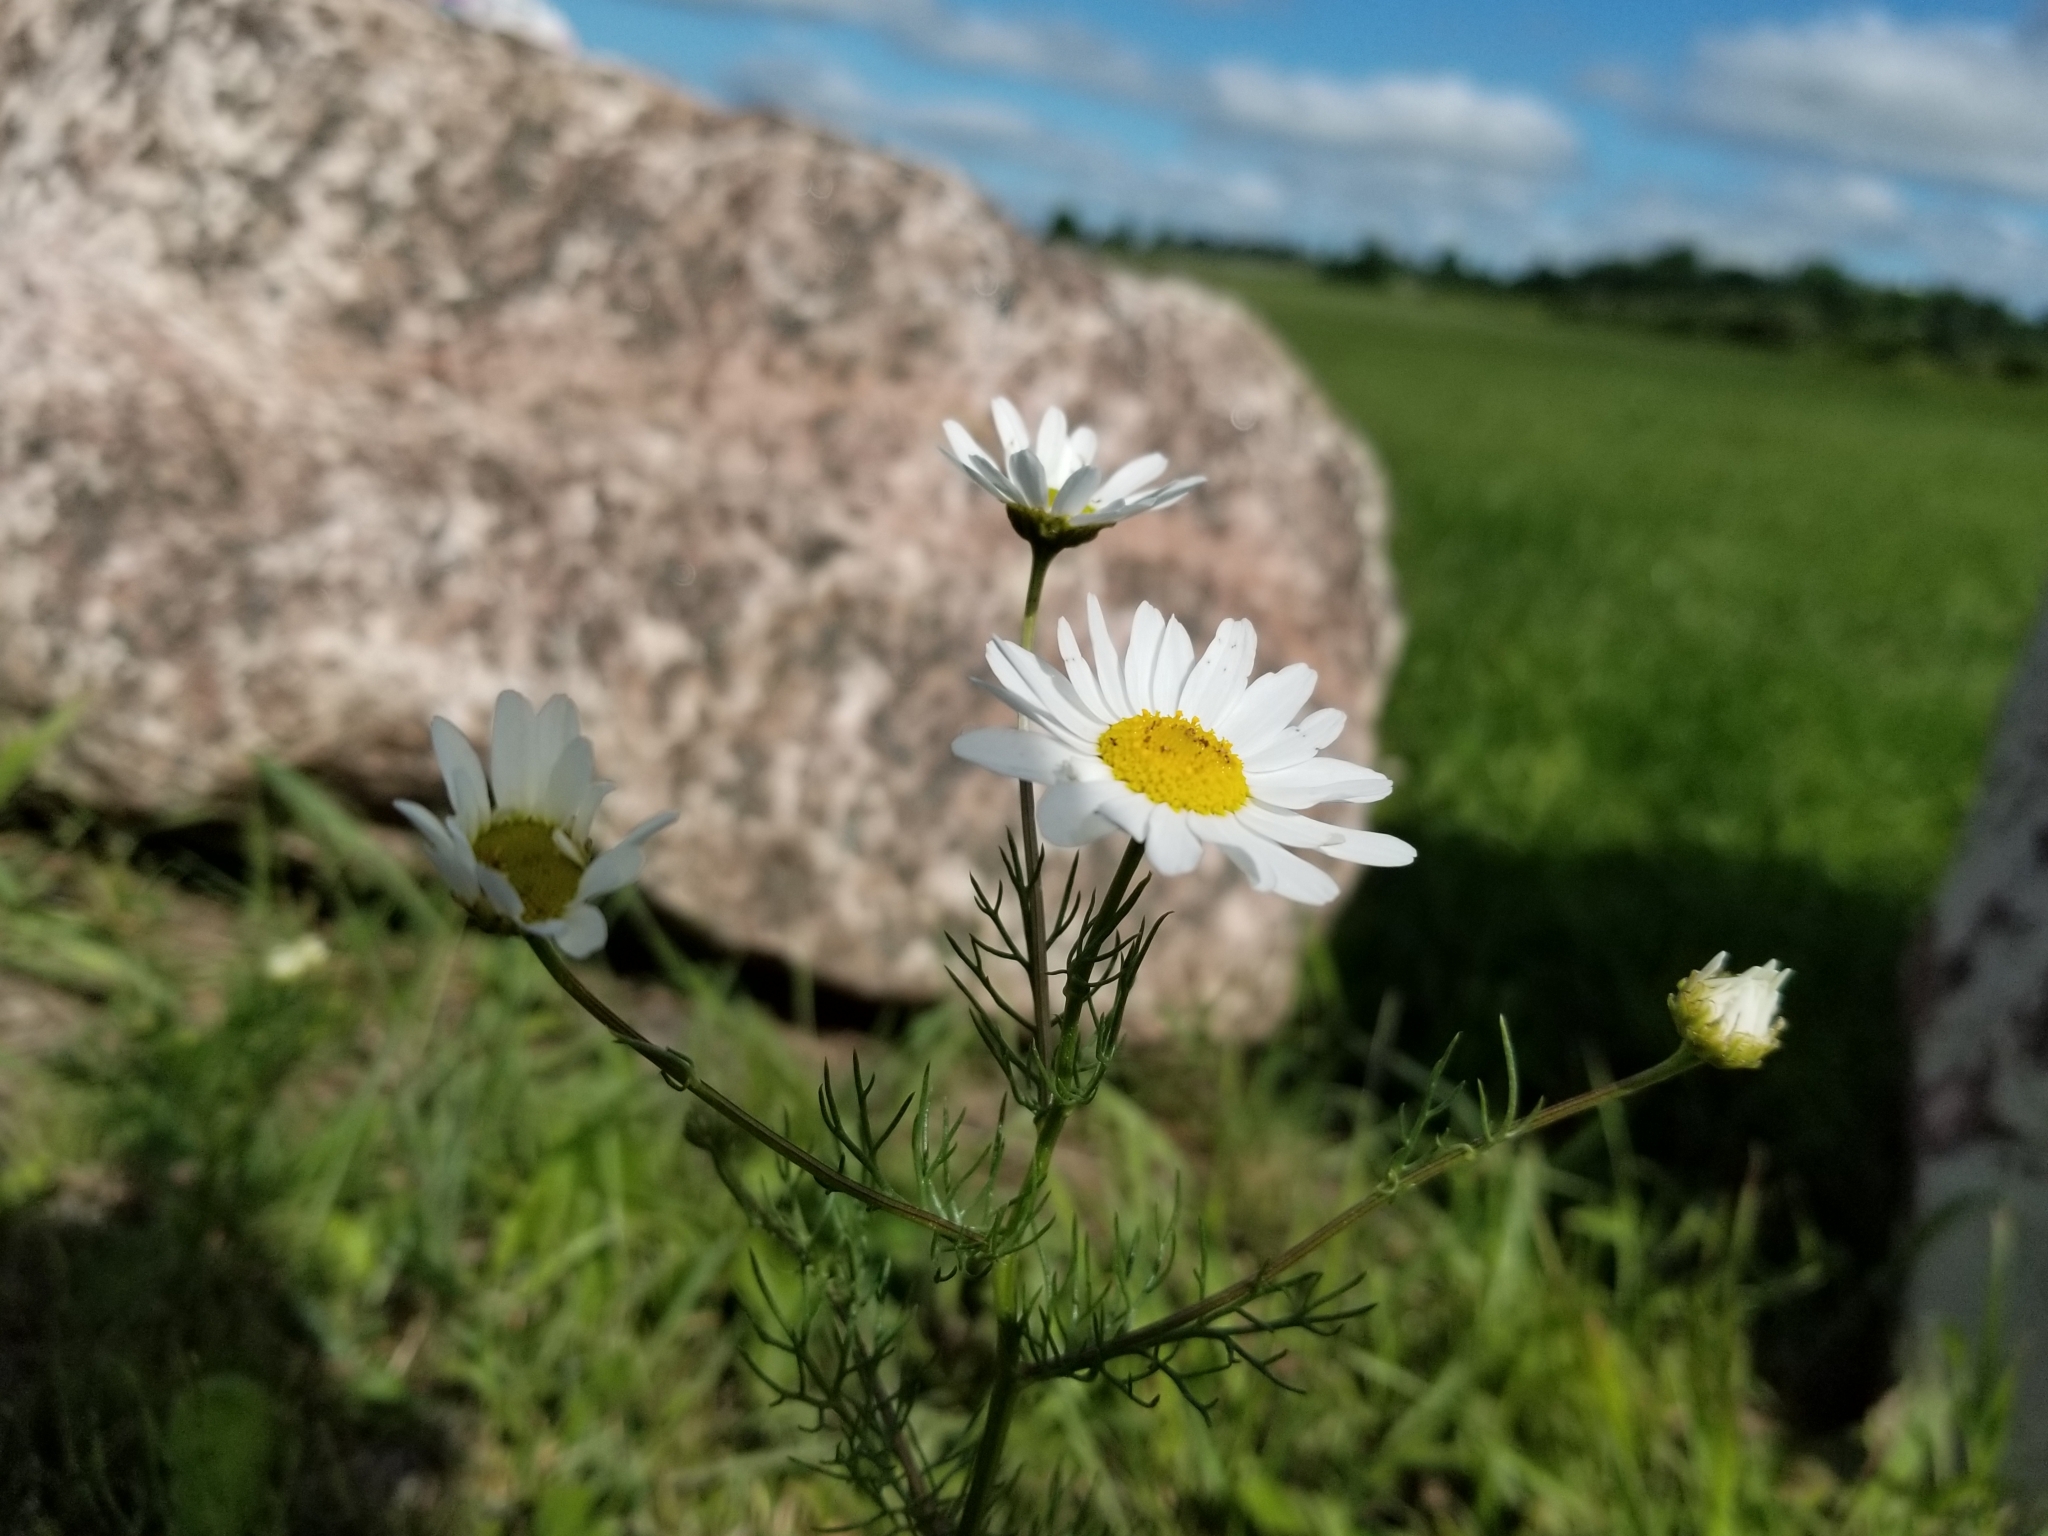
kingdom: Plantae
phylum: Tracheophyta
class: Magnoliopsida
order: Asterales
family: Asteraceae
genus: Tripleurospermum
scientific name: Tripleurospermum inodorum
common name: Scentless mayweed
